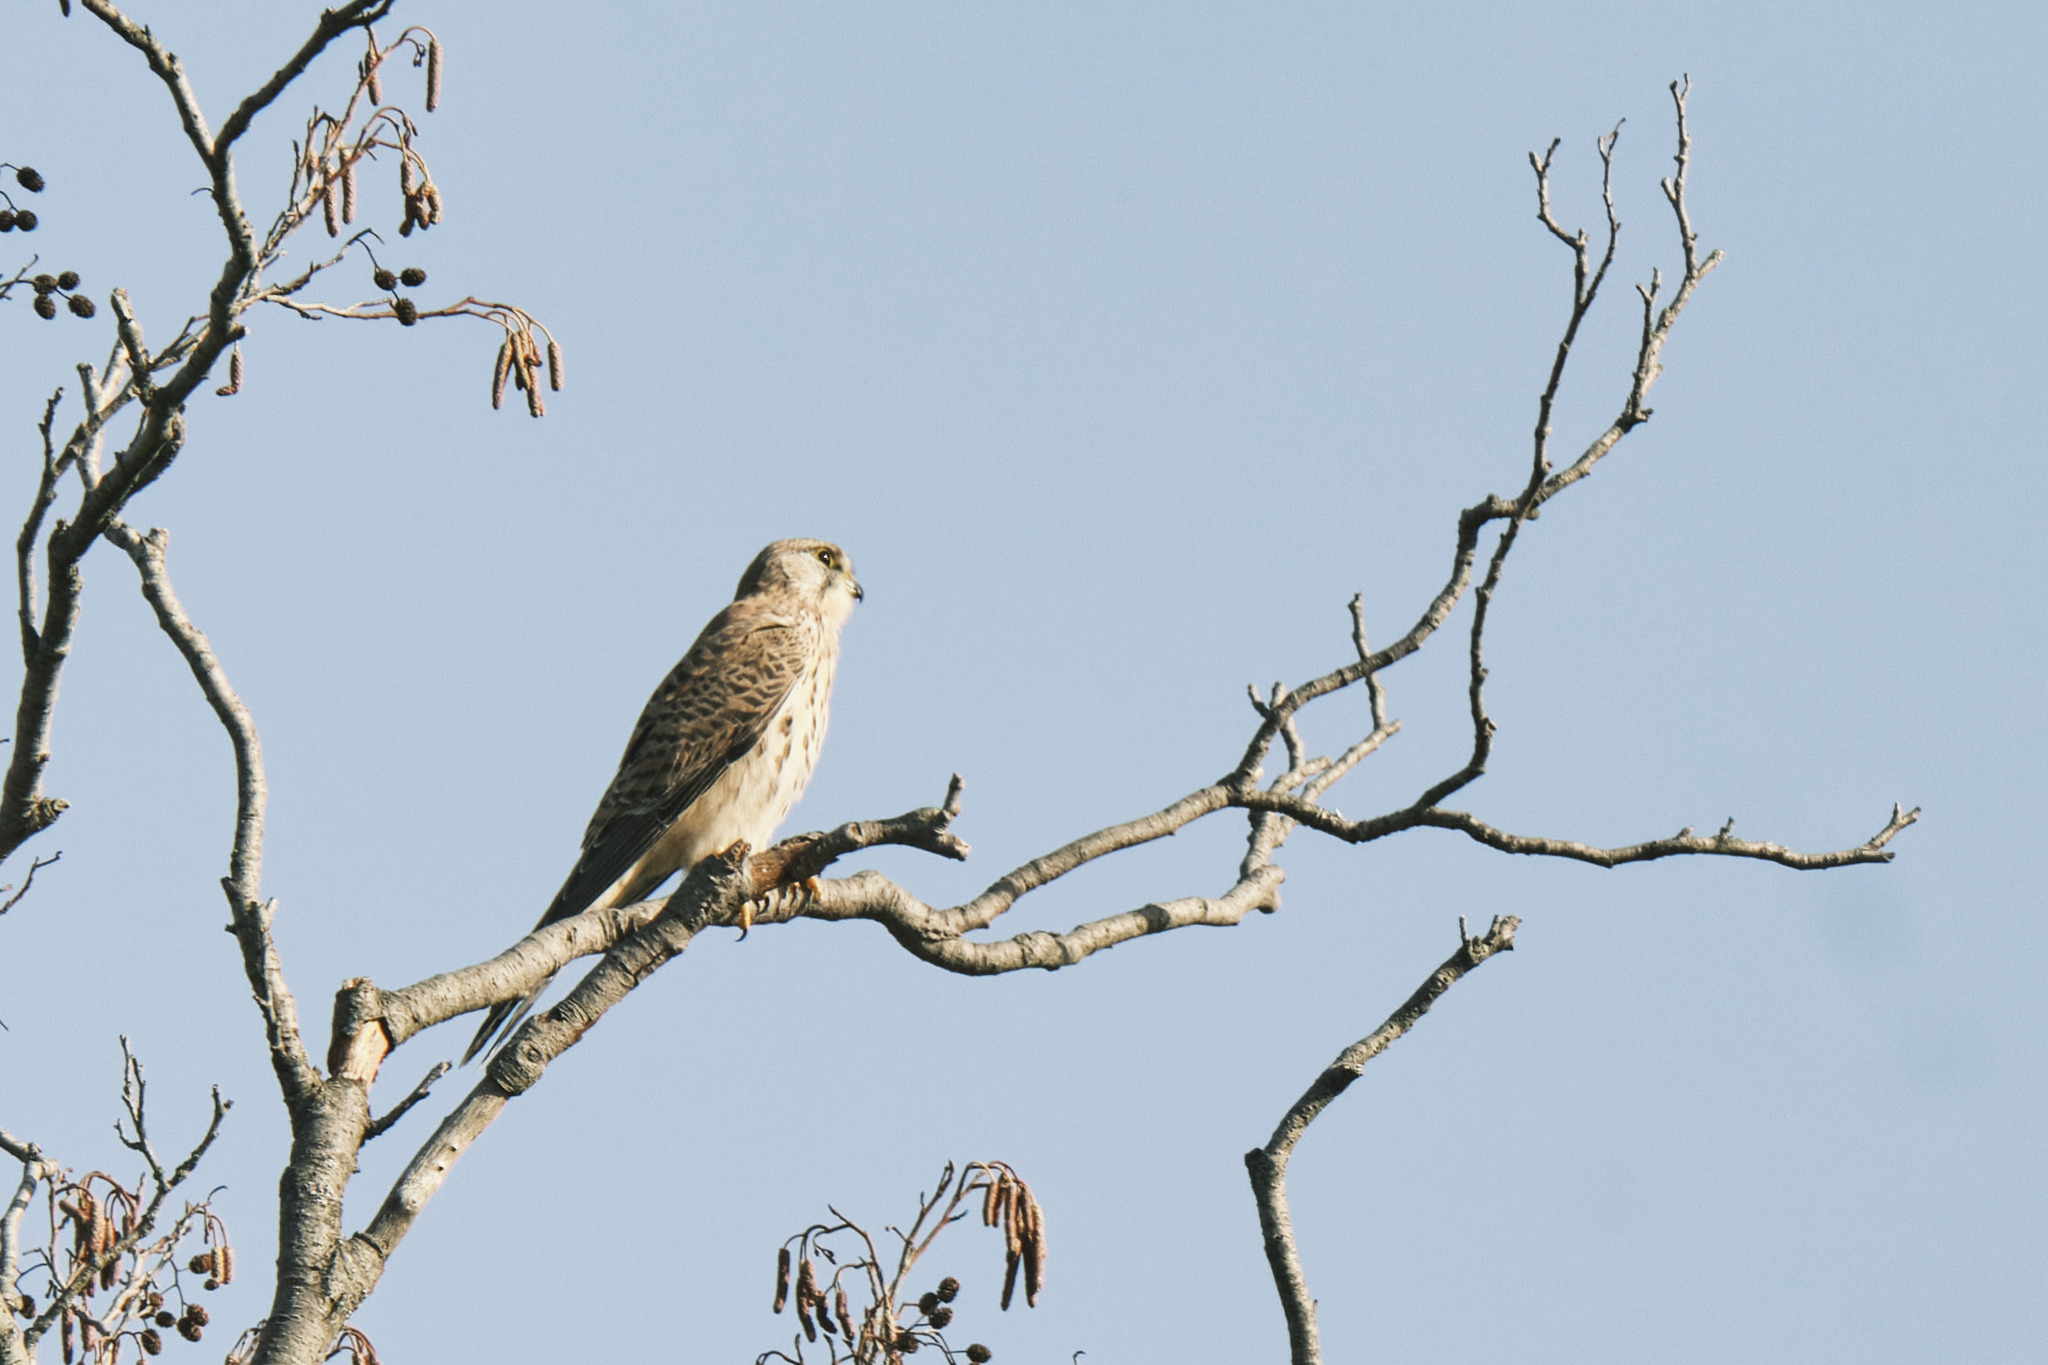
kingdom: Animalia
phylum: Chordata
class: Aves
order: Falconiformes
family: Falconidae
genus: Falco
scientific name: Falco tinnunculus
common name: Common kestrel
